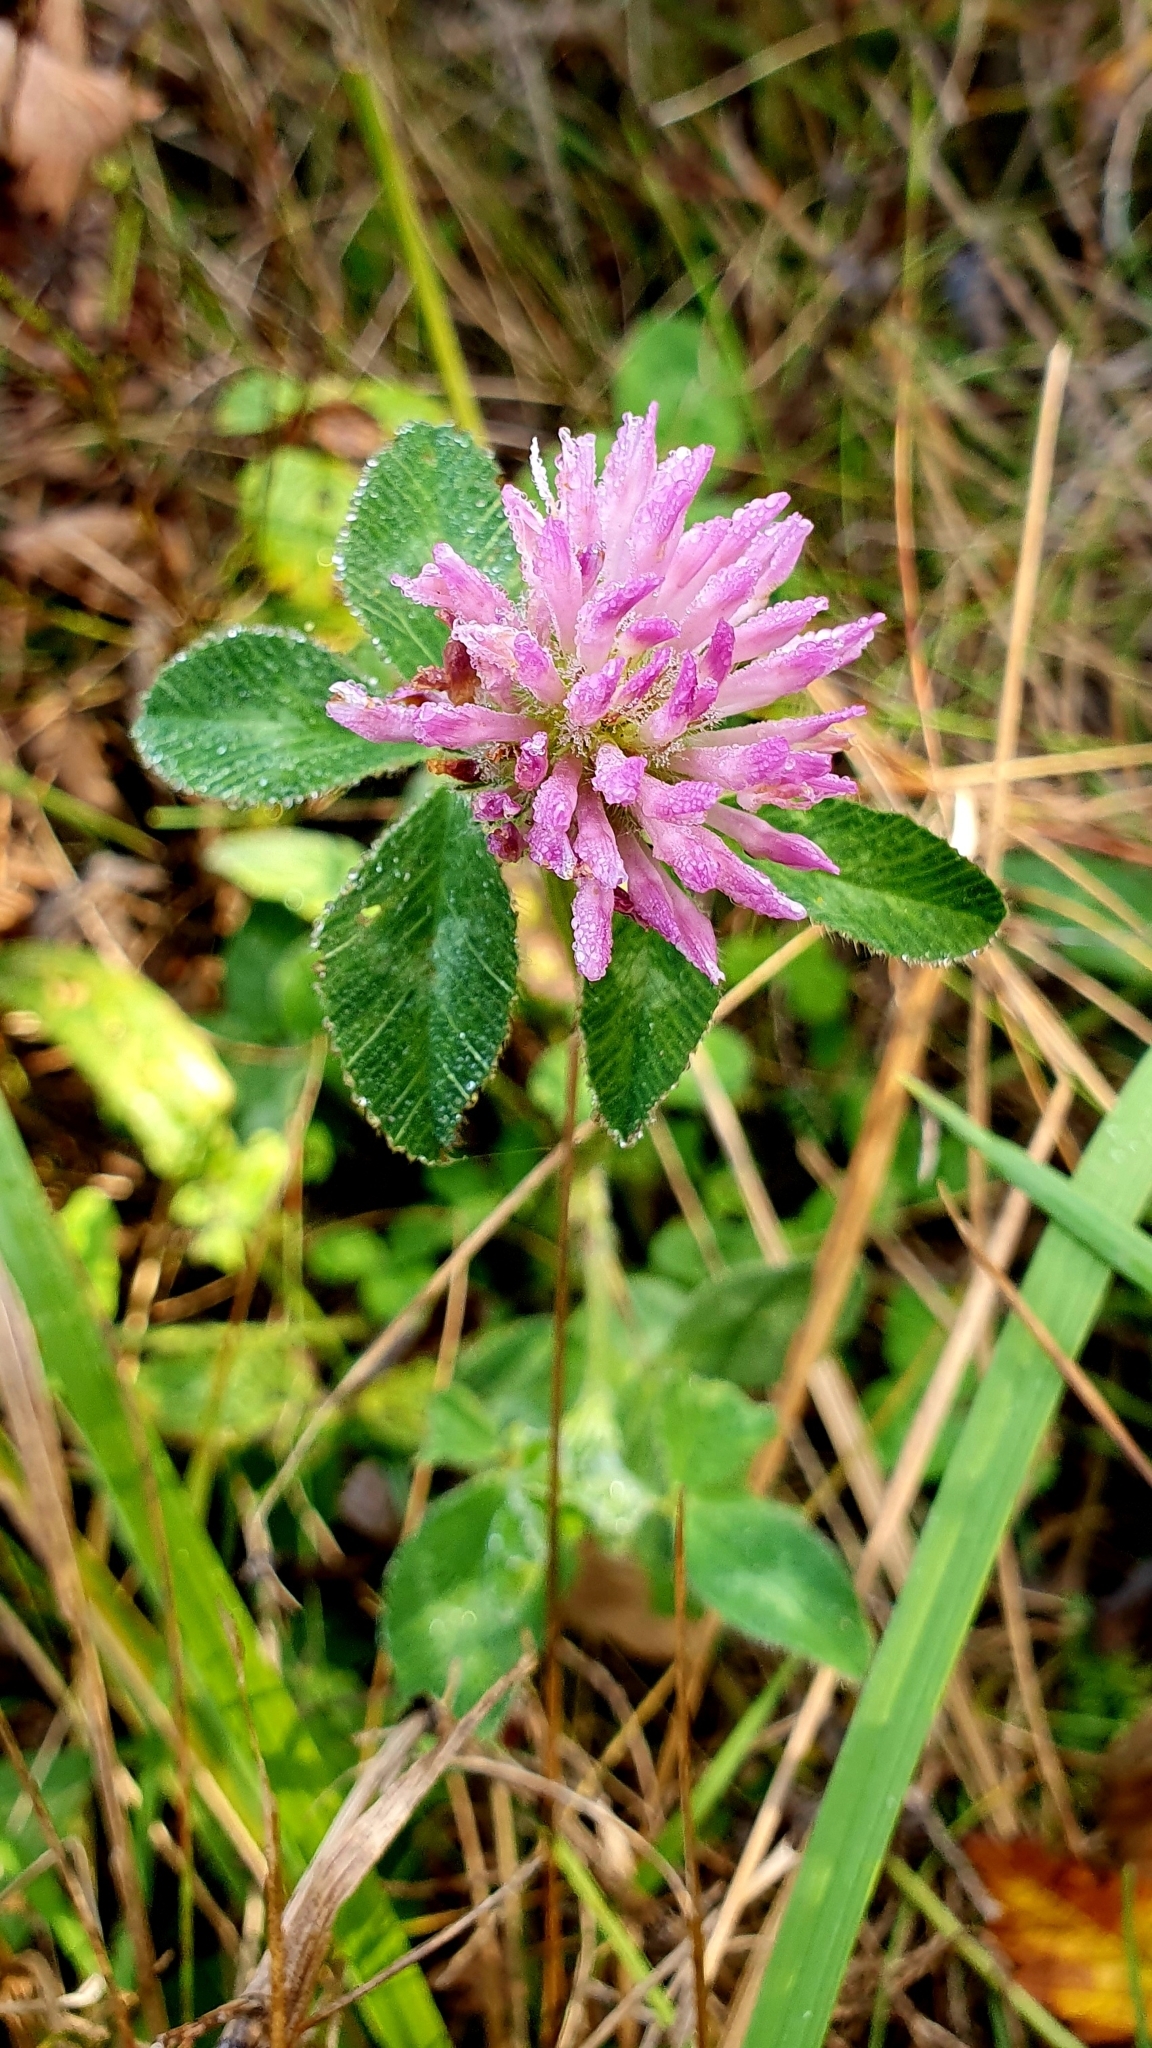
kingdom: Plantae
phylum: Tracheophyta
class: Magnoliopsida
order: Fabales
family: Fabaceae
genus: Trifolium
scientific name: Trifolium pratense
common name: Red clover
